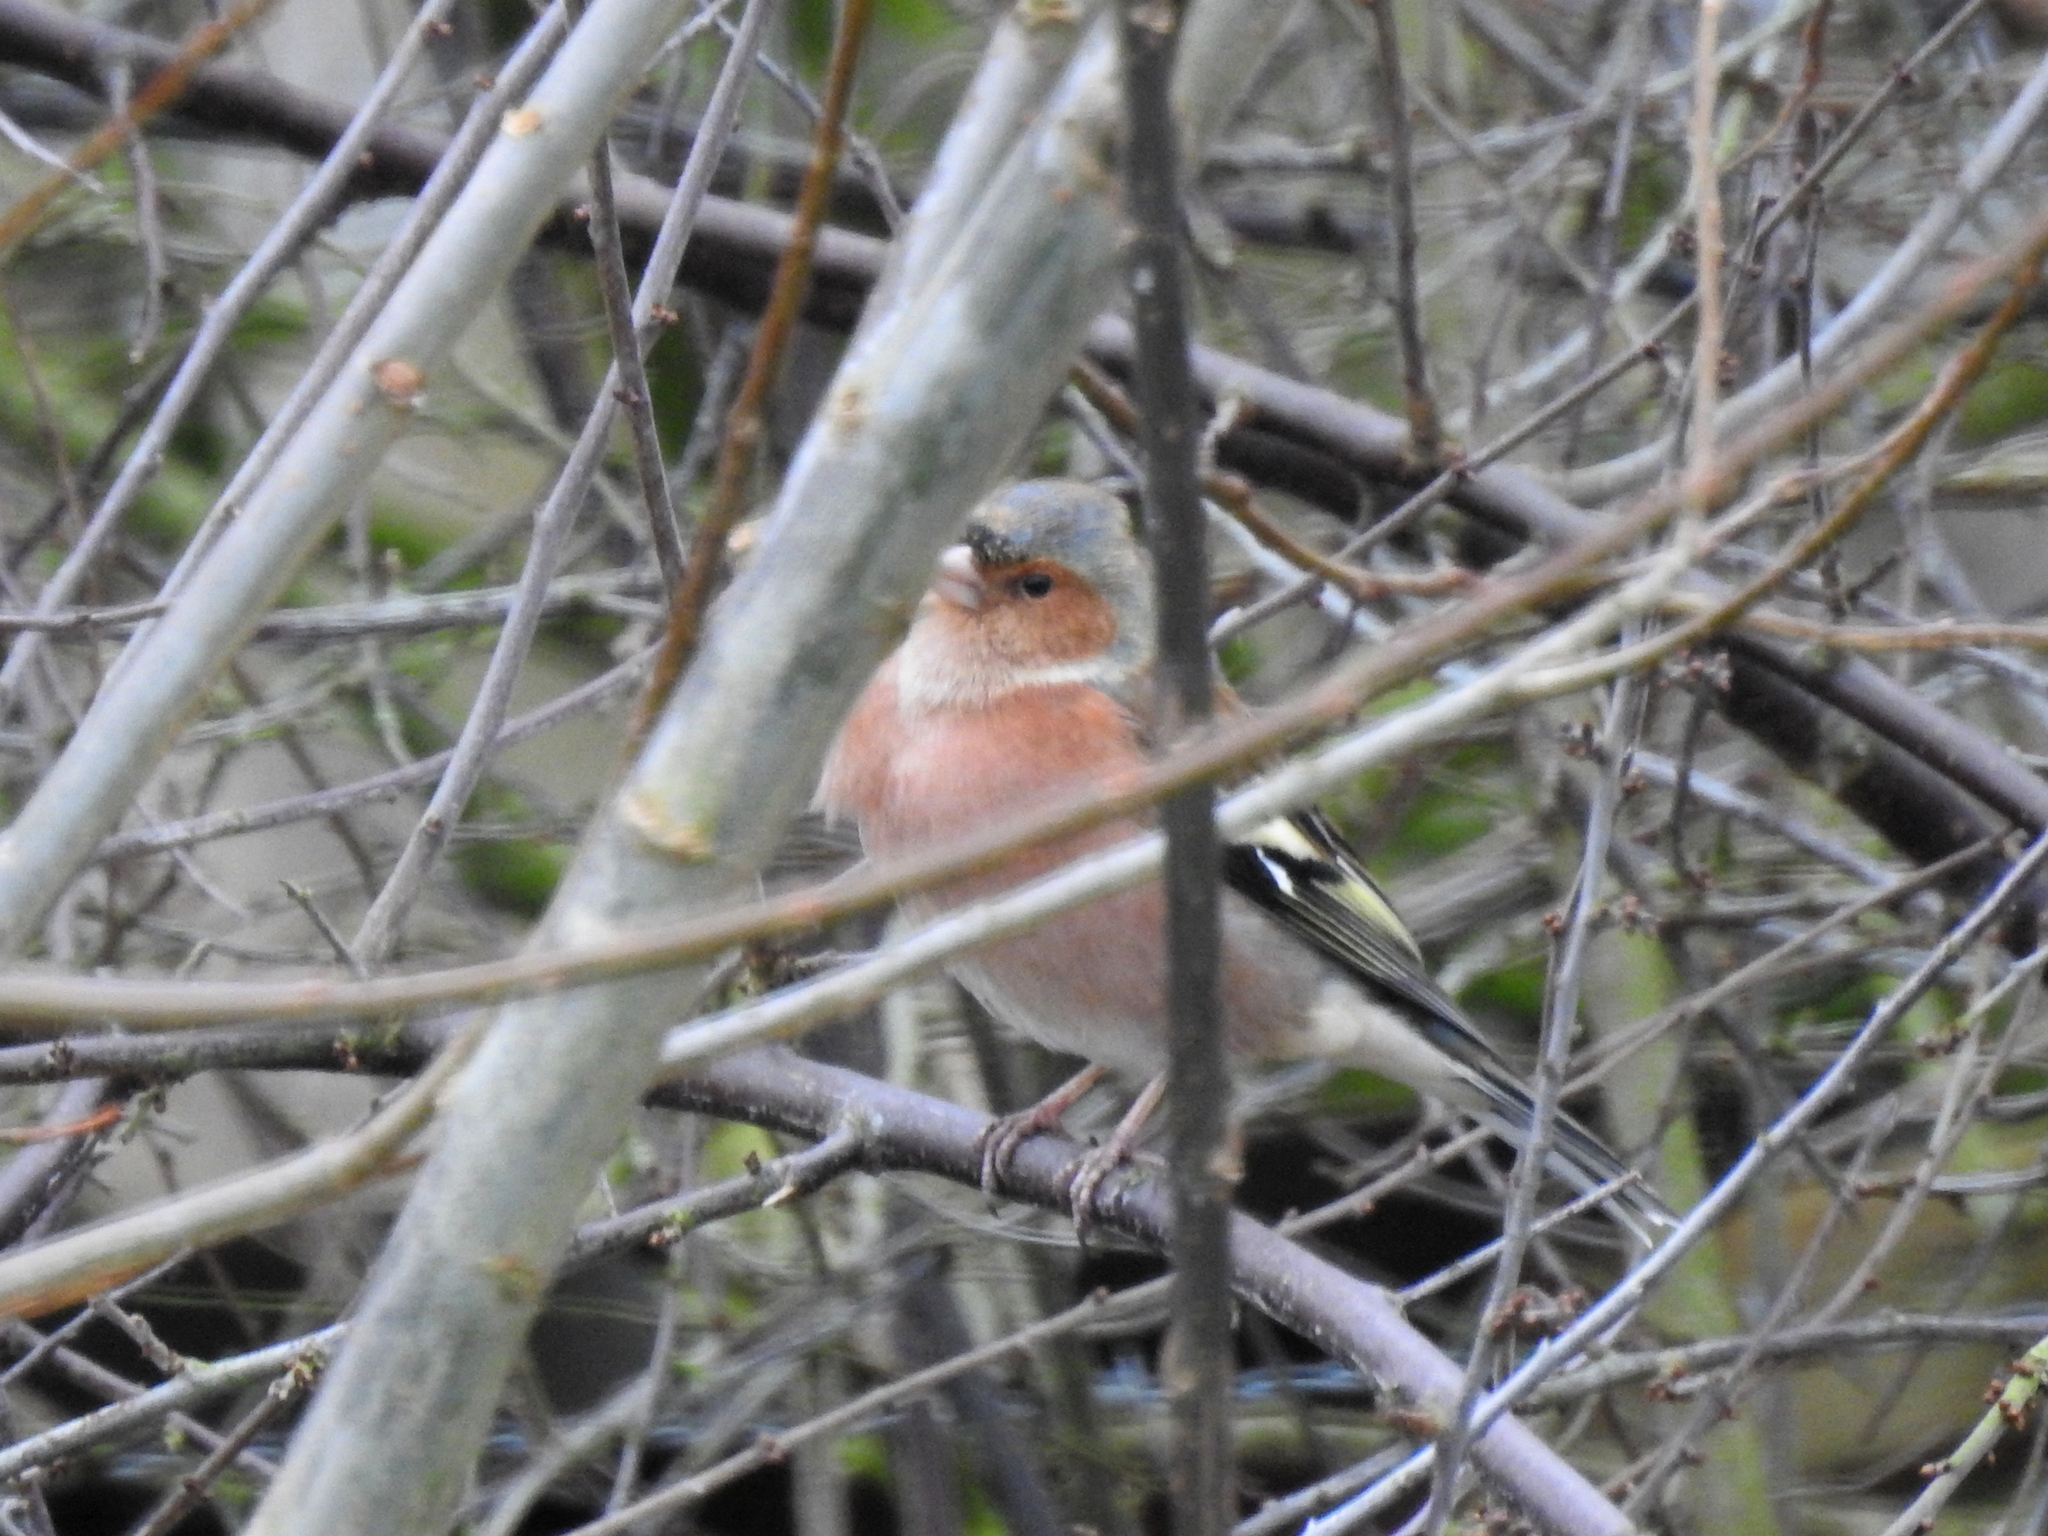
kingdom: Animalia
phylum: Chordata
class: Aves
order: Passeriformes
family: Fringillidae
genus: Fringilla
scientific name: Fringilla coelebs
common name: Common chaffinch
